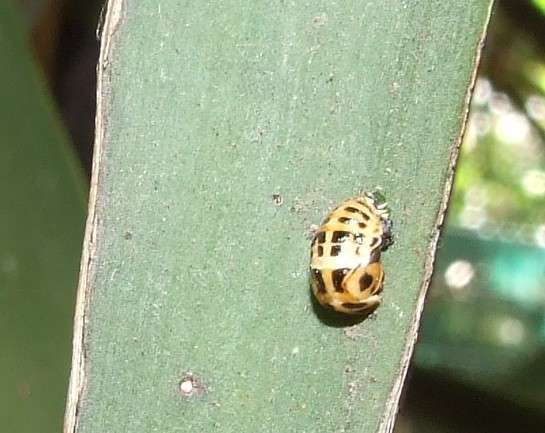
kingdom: Animalia
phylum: Arthropoda
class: Insecta
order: Coleoptera
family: Coccinellidae
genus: Harmonia
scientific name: Harmonia conformis
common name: Common spotted ladybird beetle
